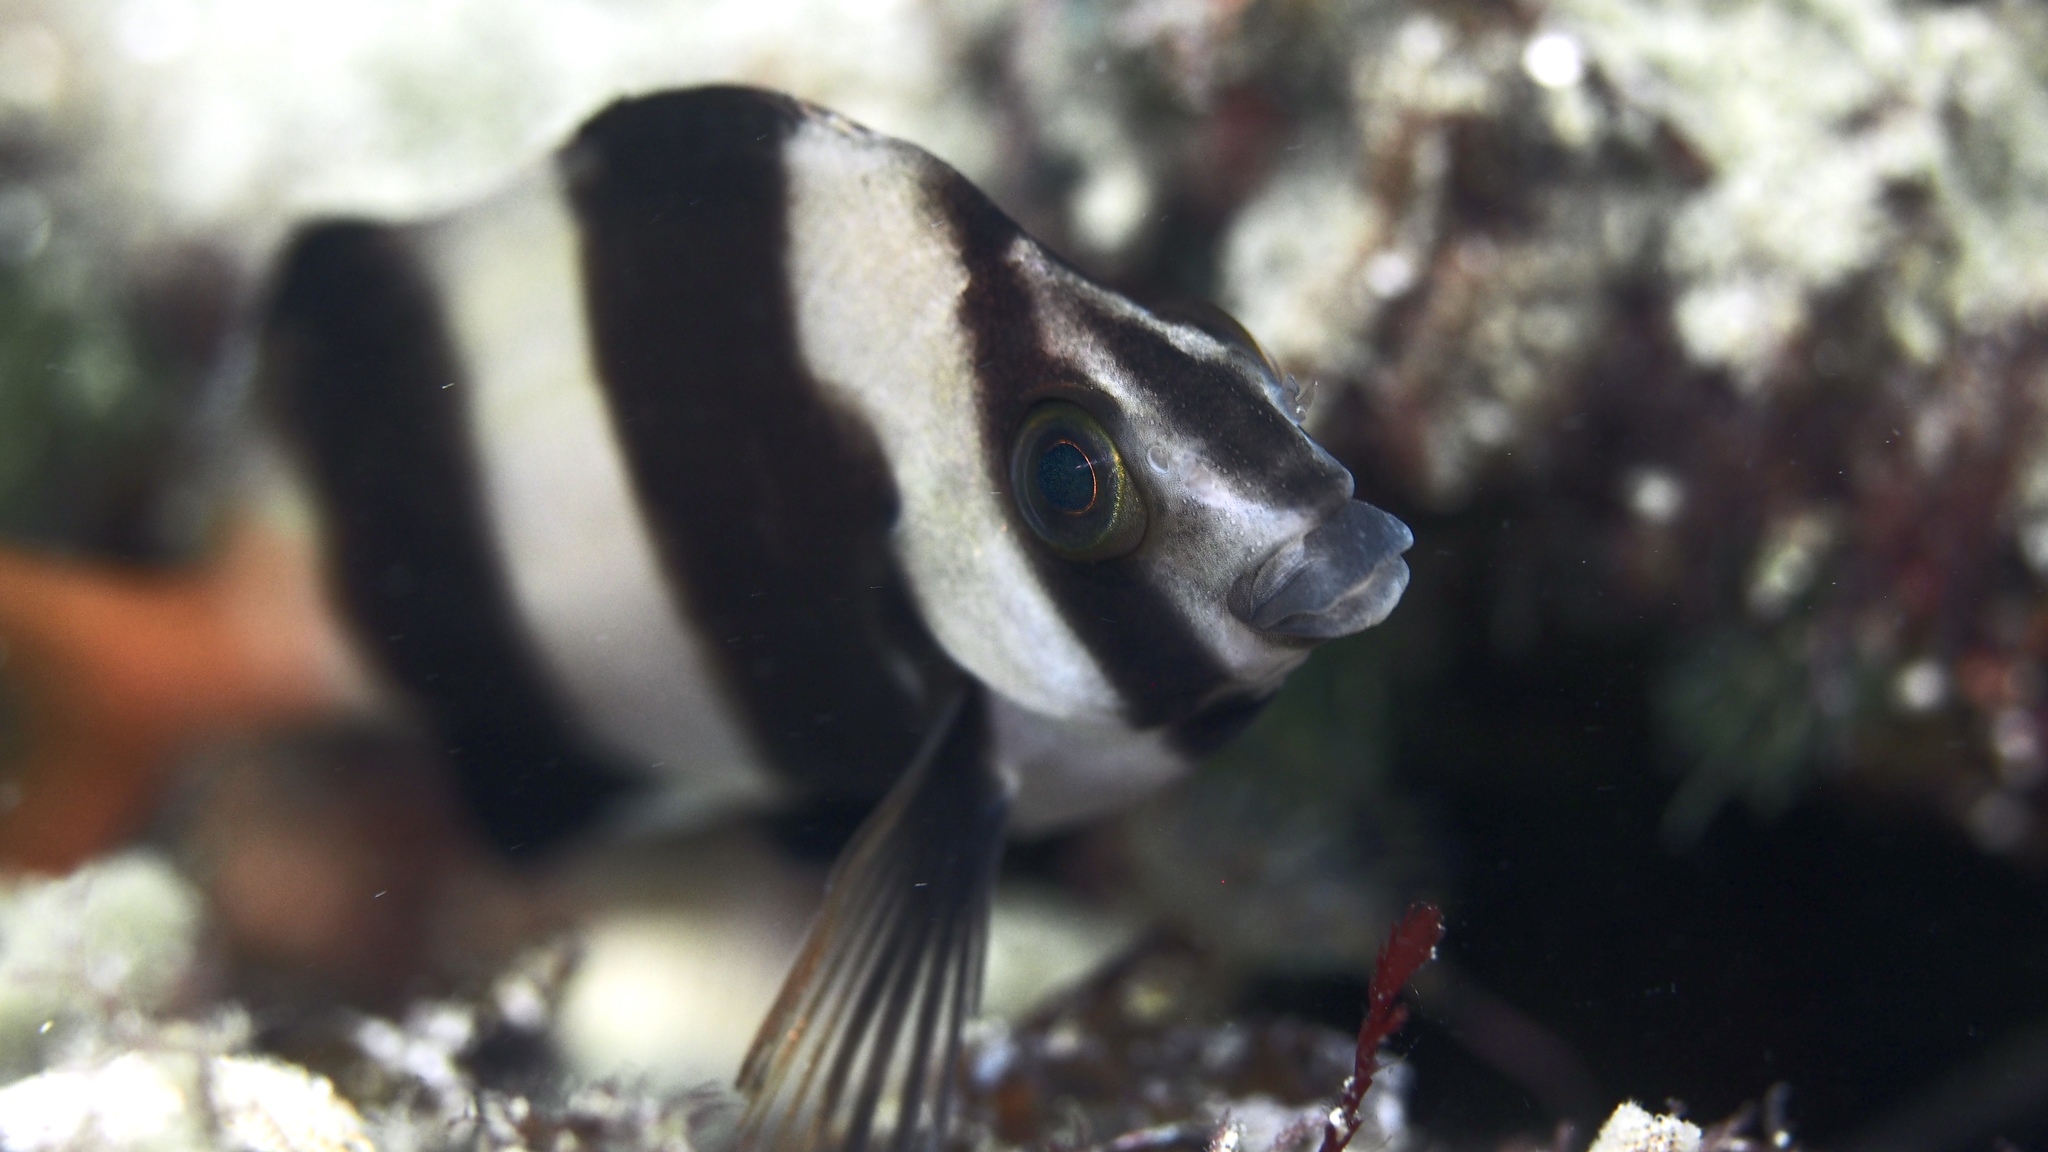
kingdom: Animalia
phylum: Chordata
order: Perciformes
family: Latridae
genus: Pseudogoniistius
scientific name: Pseudogoniistius nigripes
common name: Black-striped morwong
